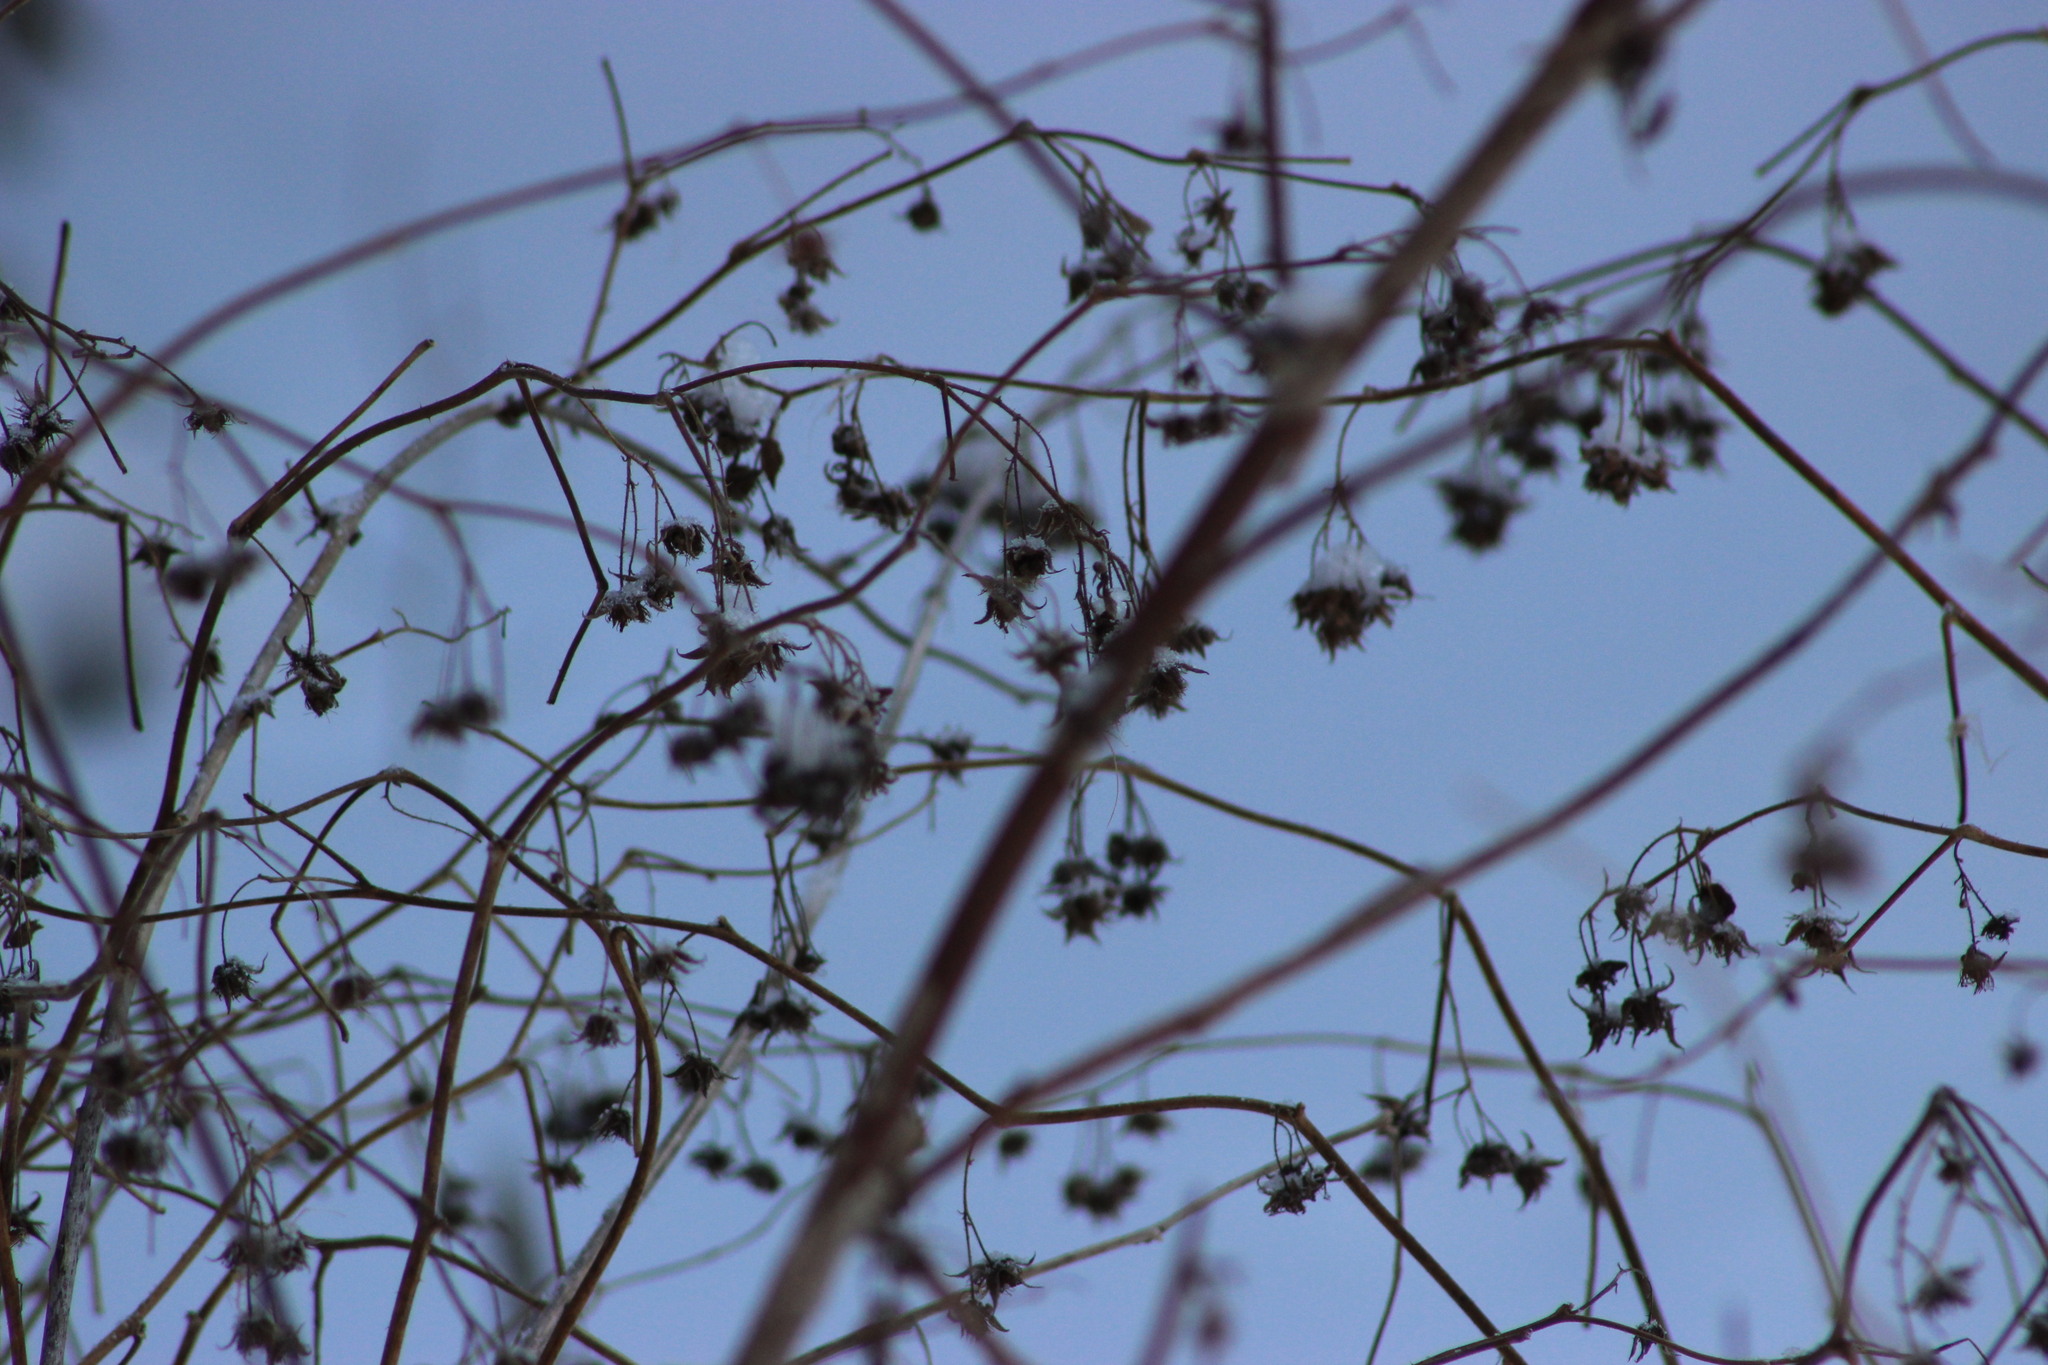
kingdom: Plantae
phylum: Tracheophyta
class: Magnoliopsida
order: Rosales
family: Rosaceae
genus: Rubus
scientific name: Rubus idaeus
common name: Raspberry
